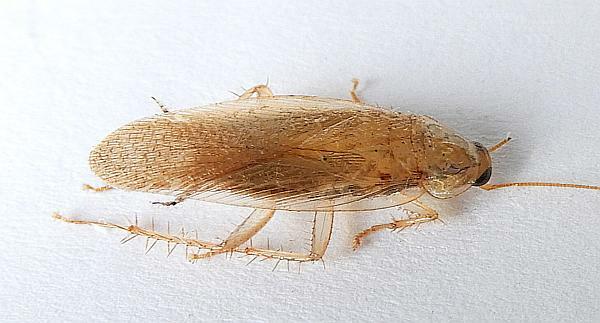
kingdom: Animalia
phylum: Arthropoda
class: Insecta
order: Blattodea
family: Ectobiidae
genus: Latiblattella
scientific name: Latiblattella rehni
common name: Rehn's cockroach
